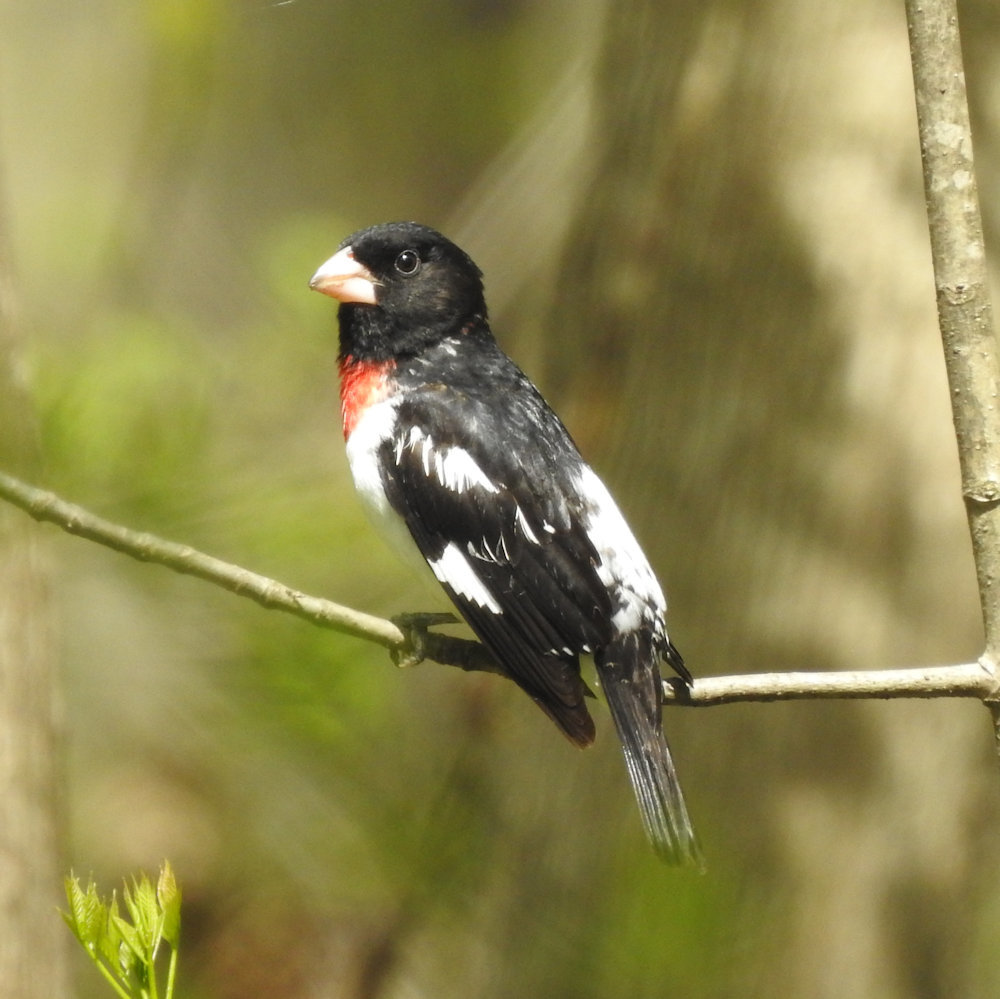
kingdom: Animalia
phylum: Chordata
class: Aves
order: Passeriformes
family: Cardinalidae
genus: Pheucticus
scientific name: Pheucticus ludovicianus
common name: Rose-breasted grosbeak
